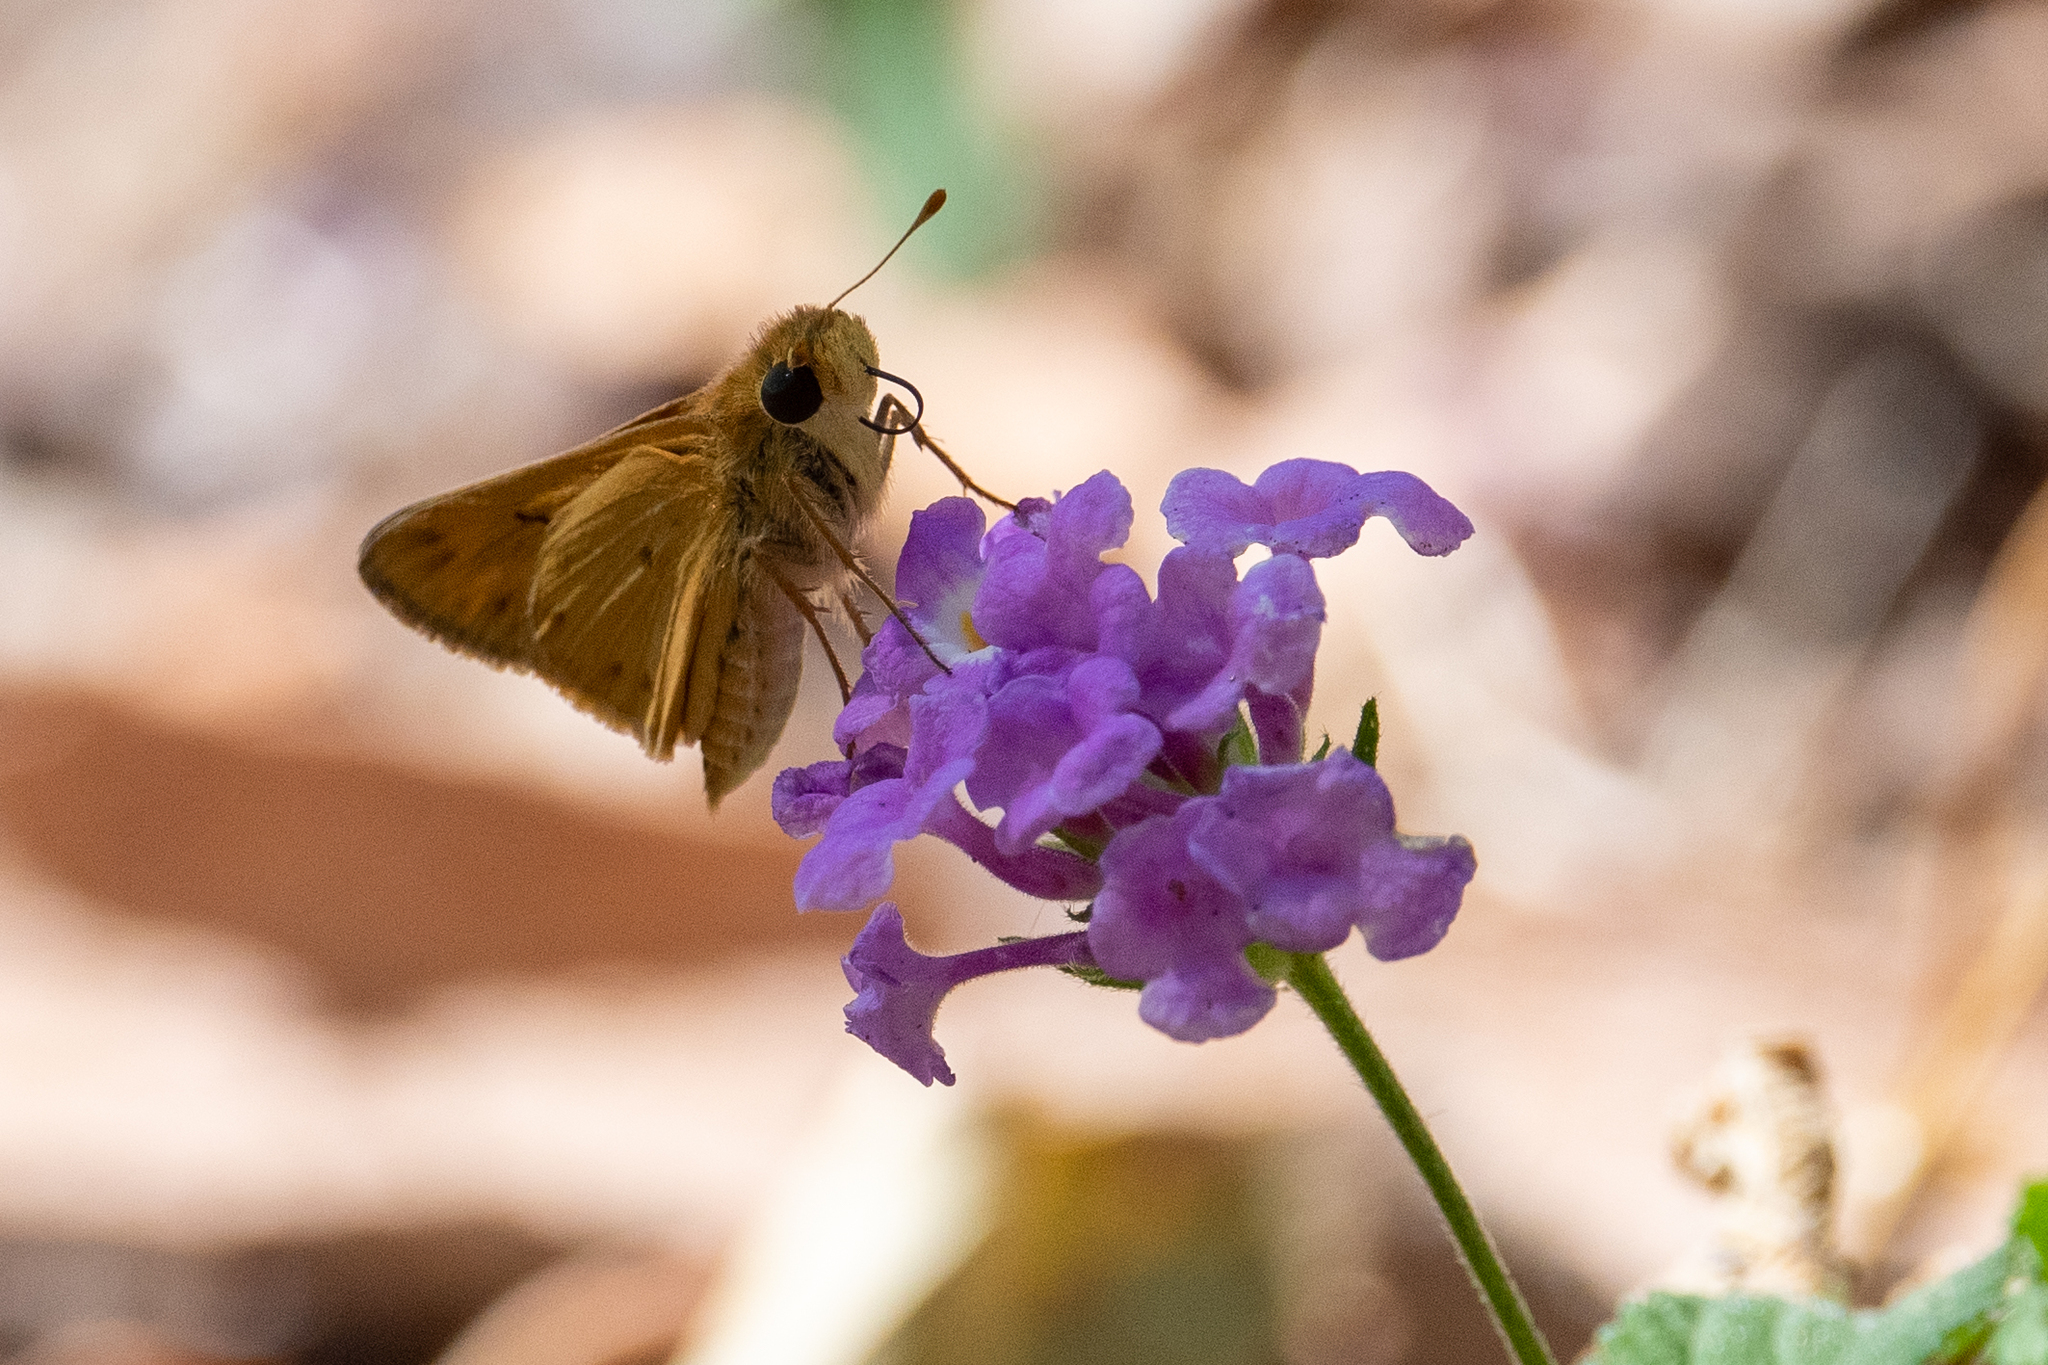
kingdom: Animalia
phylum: Arthropoda
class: Insecta
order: Lepidoptera
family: Hesperiidae
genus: Hylephila
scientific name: Hylephila phyleus
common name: Fiery skipper
